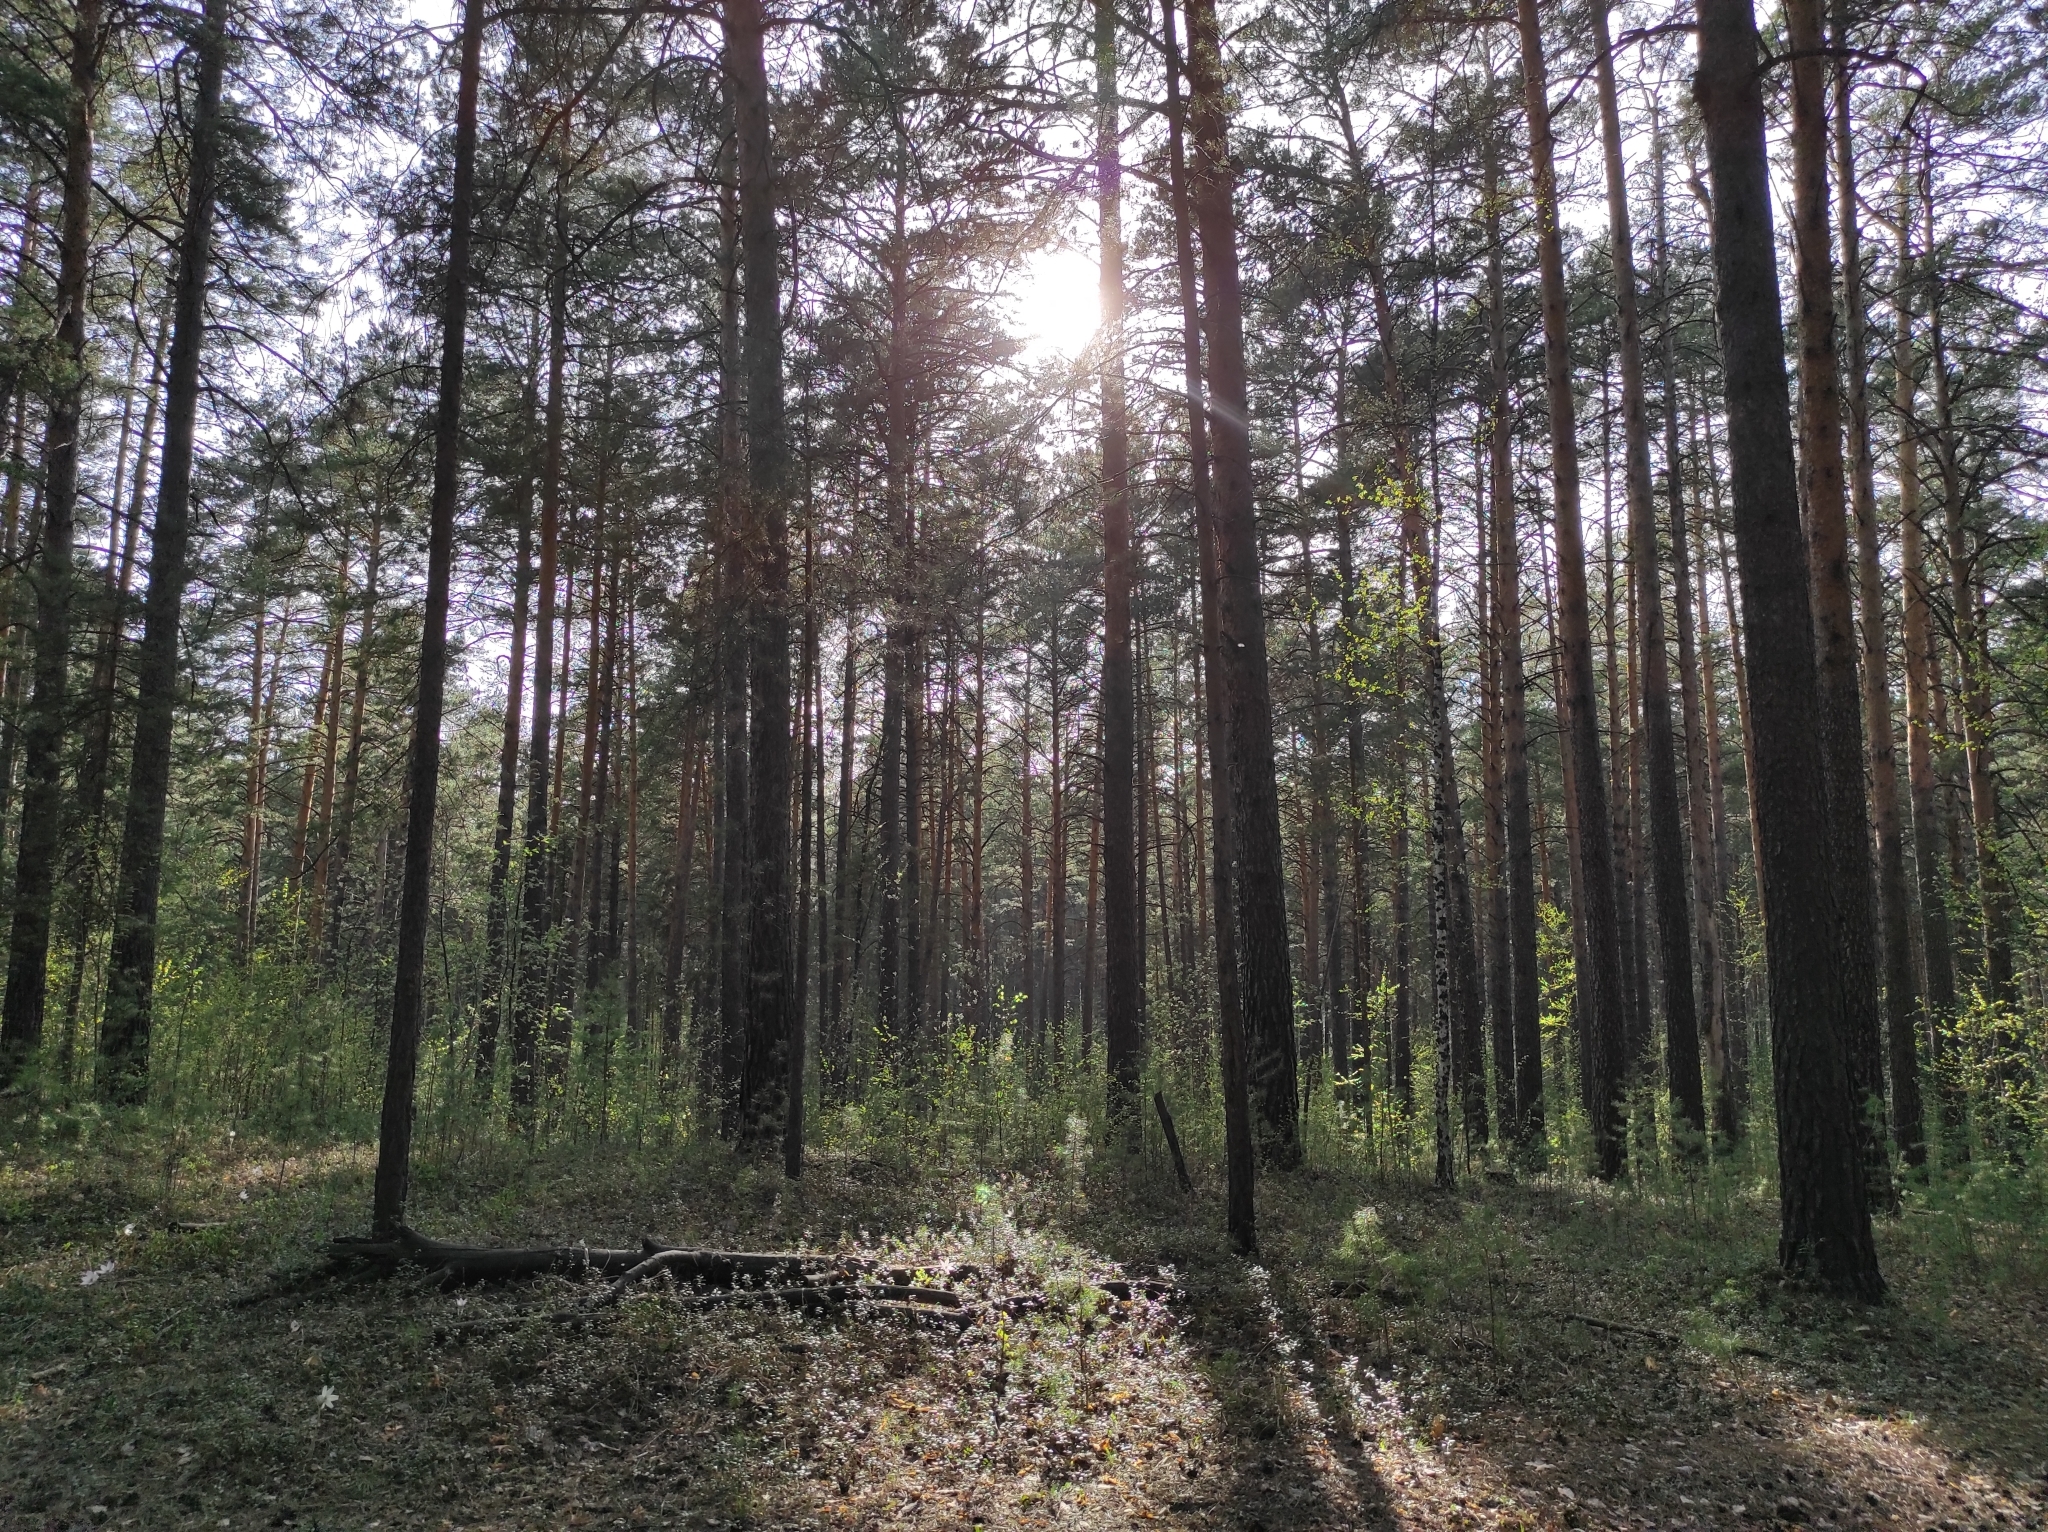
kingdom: Plantae
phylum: Tracheophyta
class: Magnoliopsida
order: Ranunculales
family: Ranunculaceae
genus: Pulsatilla
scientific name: Pulsatilla patens
